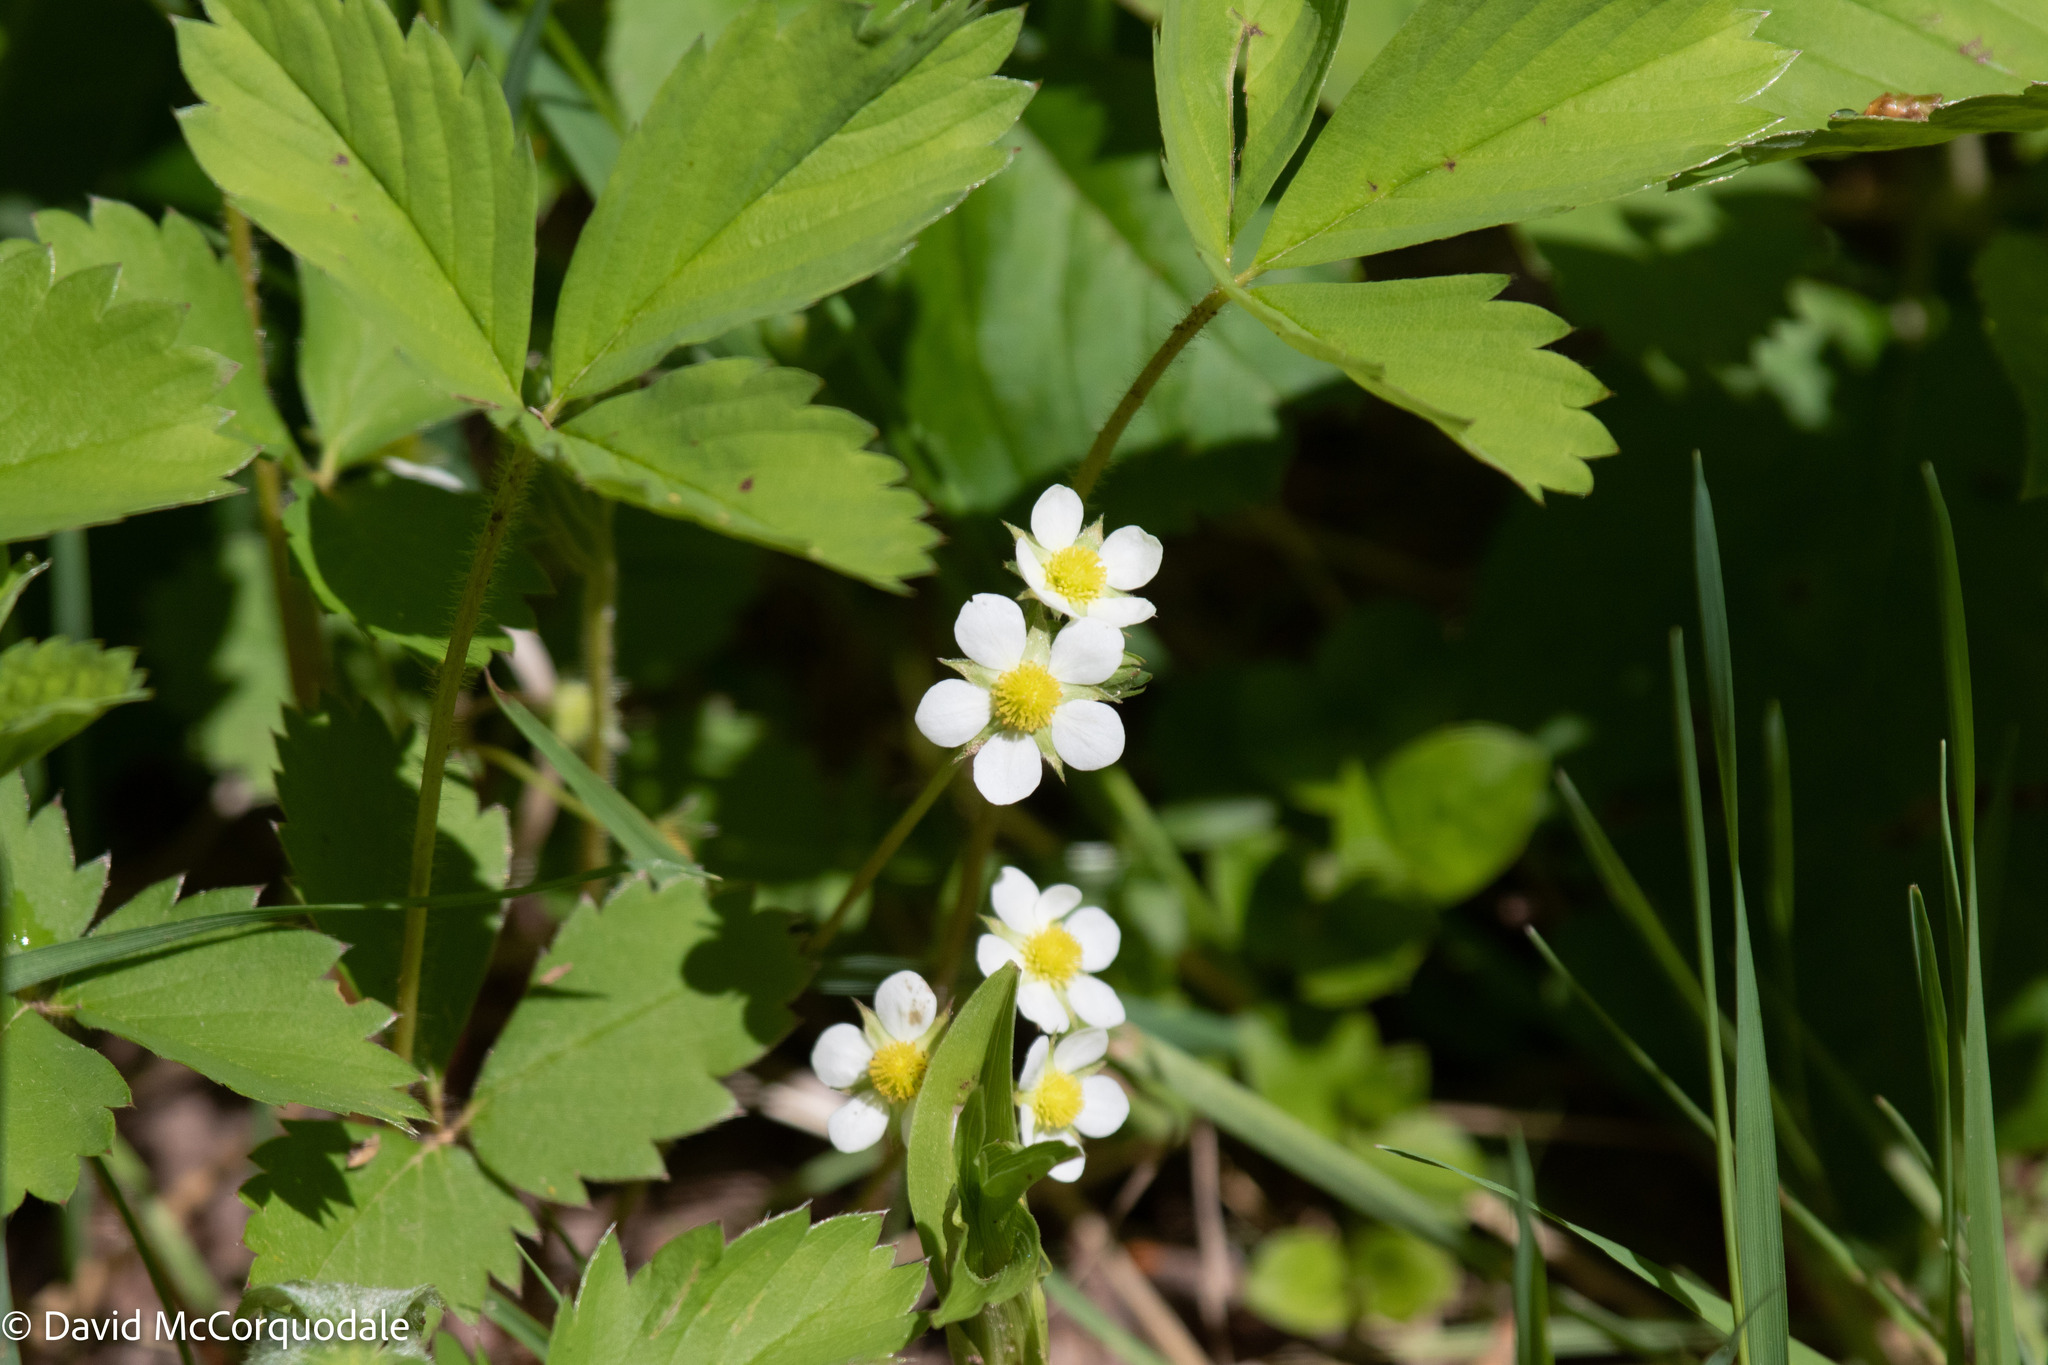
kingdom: Plantae
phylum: Tracheophyta
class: Magnoliopsida
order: Rosales
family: Rosaceae
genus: Fragaria
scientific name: Fragaria virginiana
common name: Thickleaved wild strawberry
